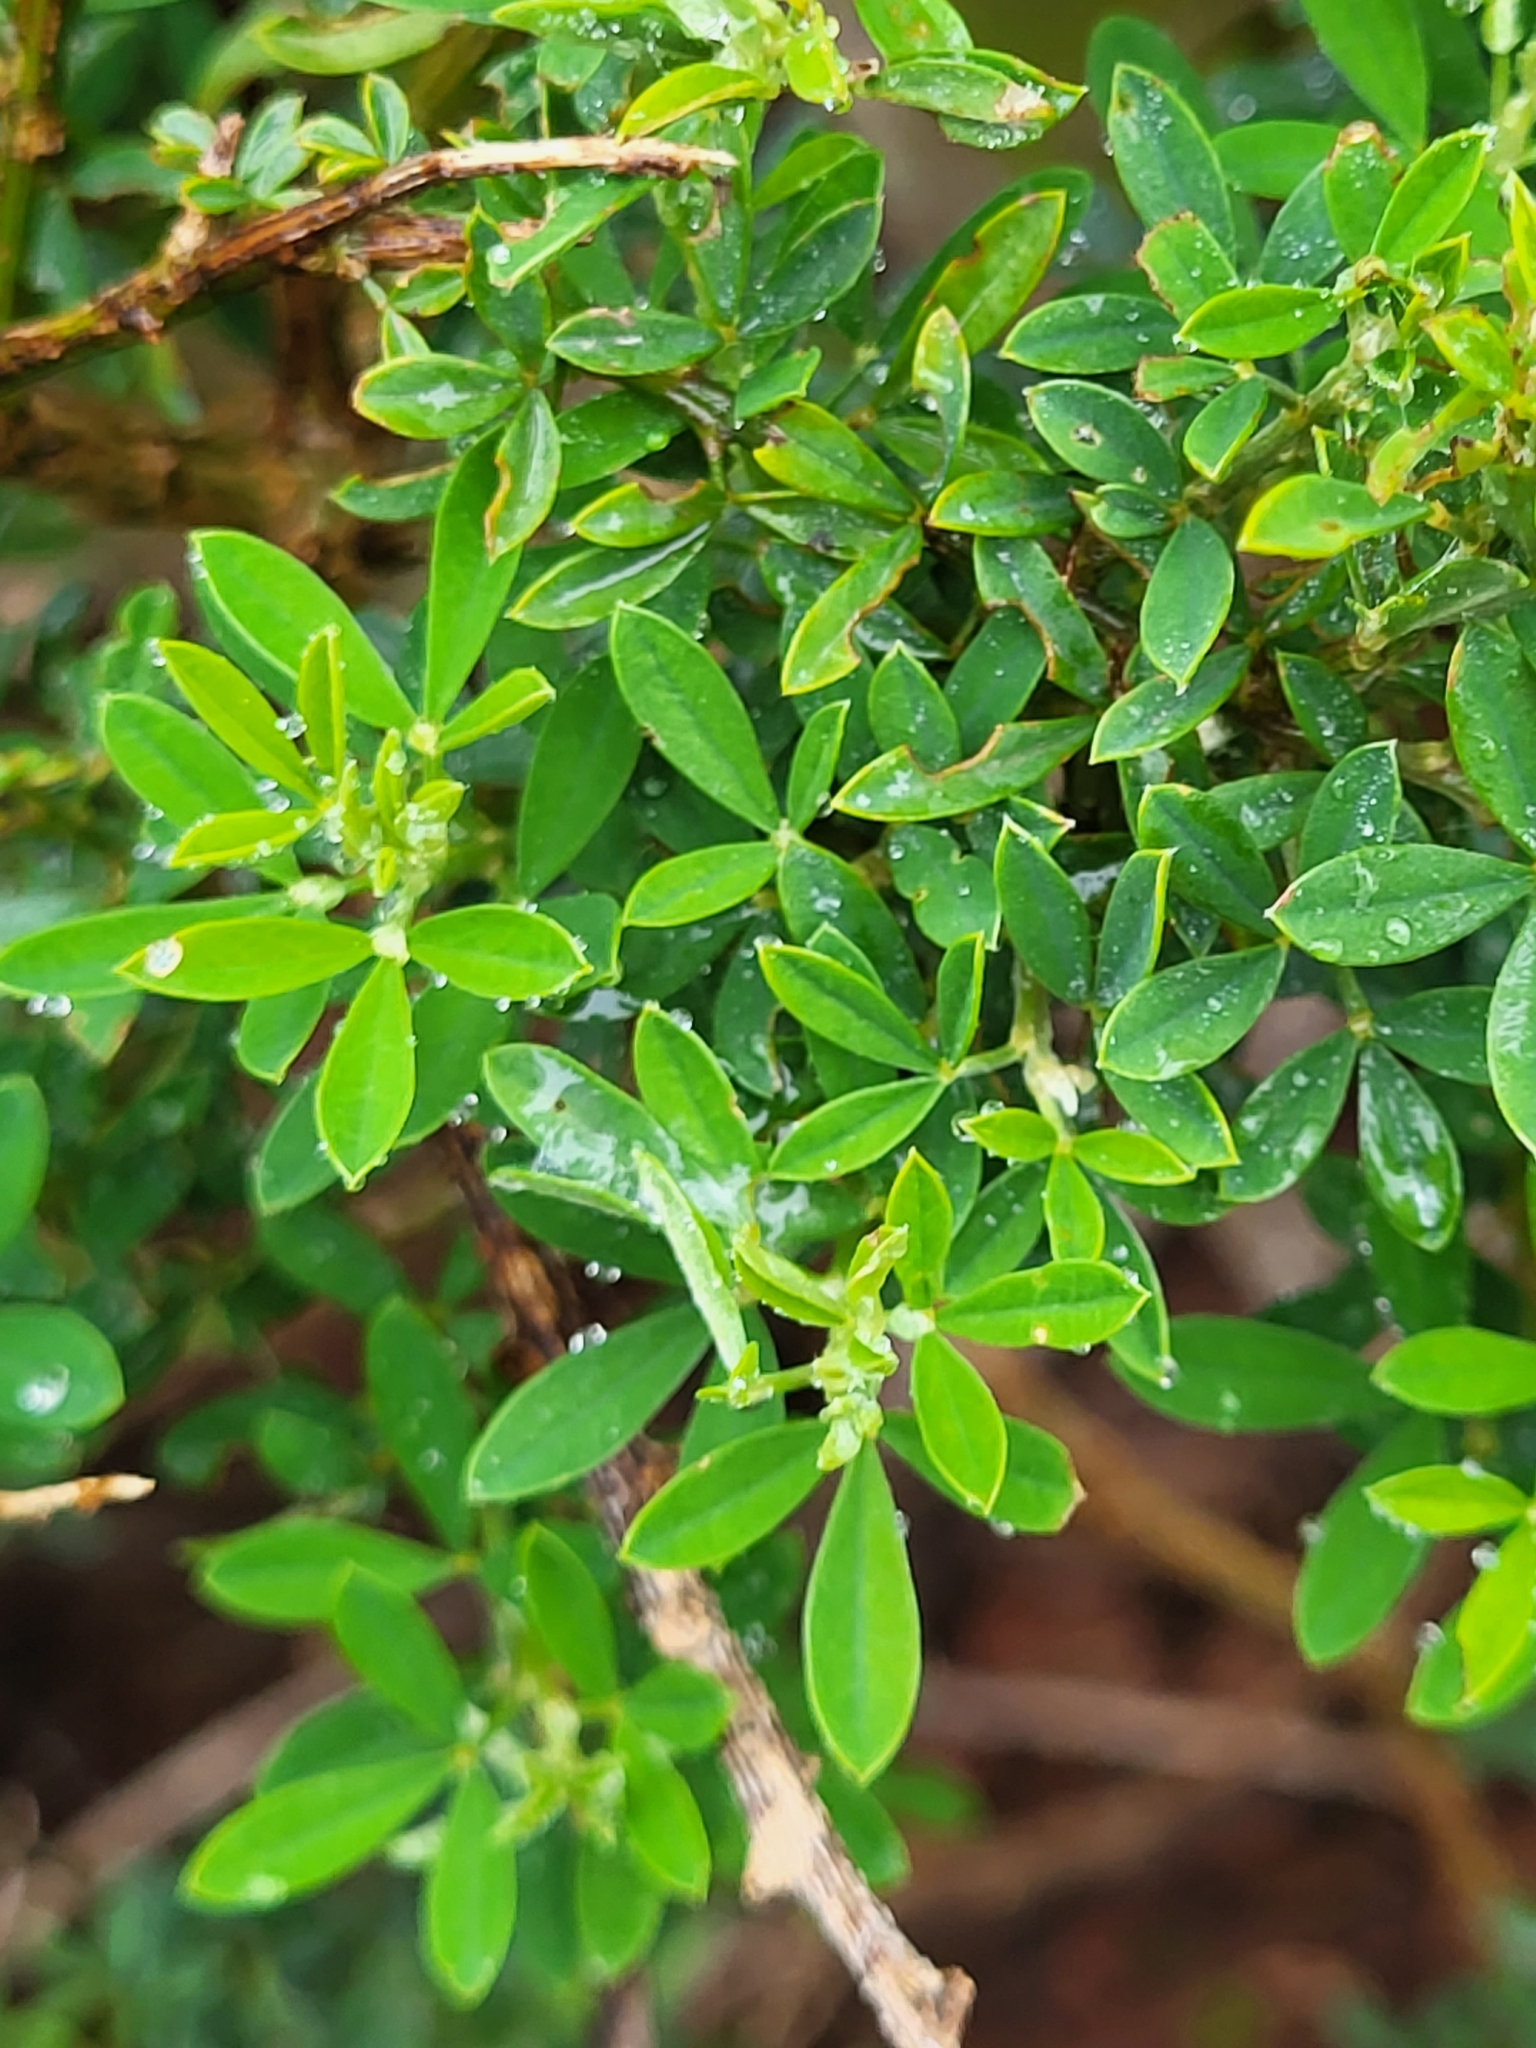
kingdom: Plantae
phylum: Tracheophyta
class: Magnoliopsida
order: Fabales
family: Fabaceae
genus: Genista
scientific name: Genista stenopetala
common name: Leafy broom
